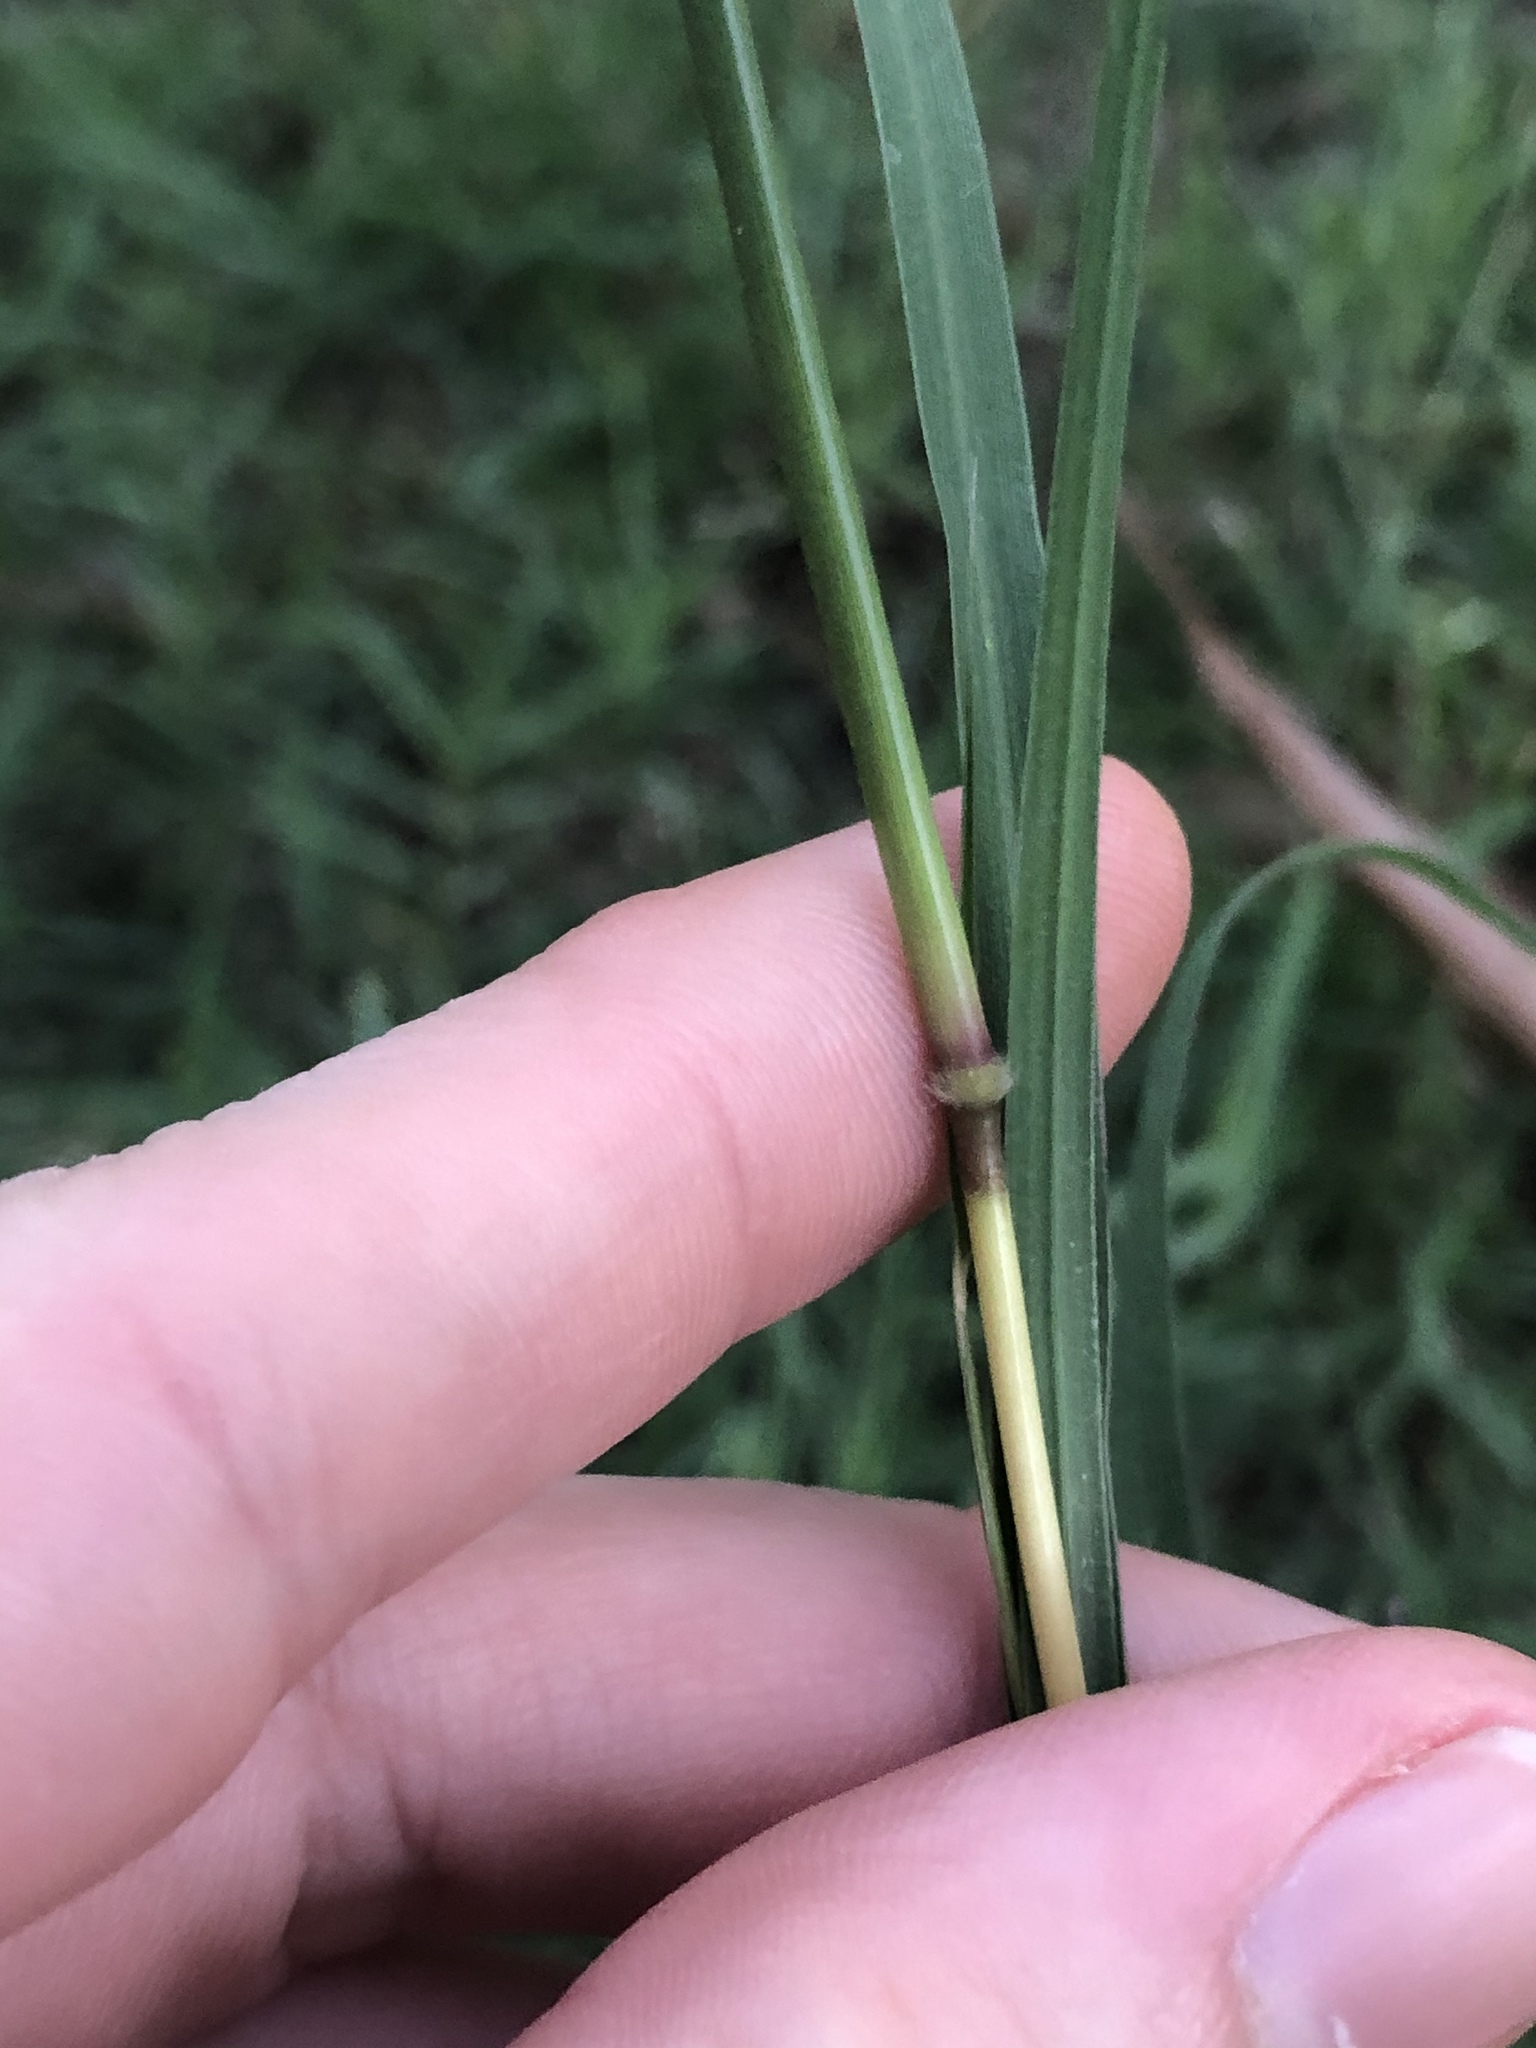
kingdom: Plantae
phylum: Tracheophyta
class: Liliopsida
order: Poales
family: Poaceae
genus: Bothriochloa
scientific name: Bothriochloa ischaemum
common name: Yellow bluestem
